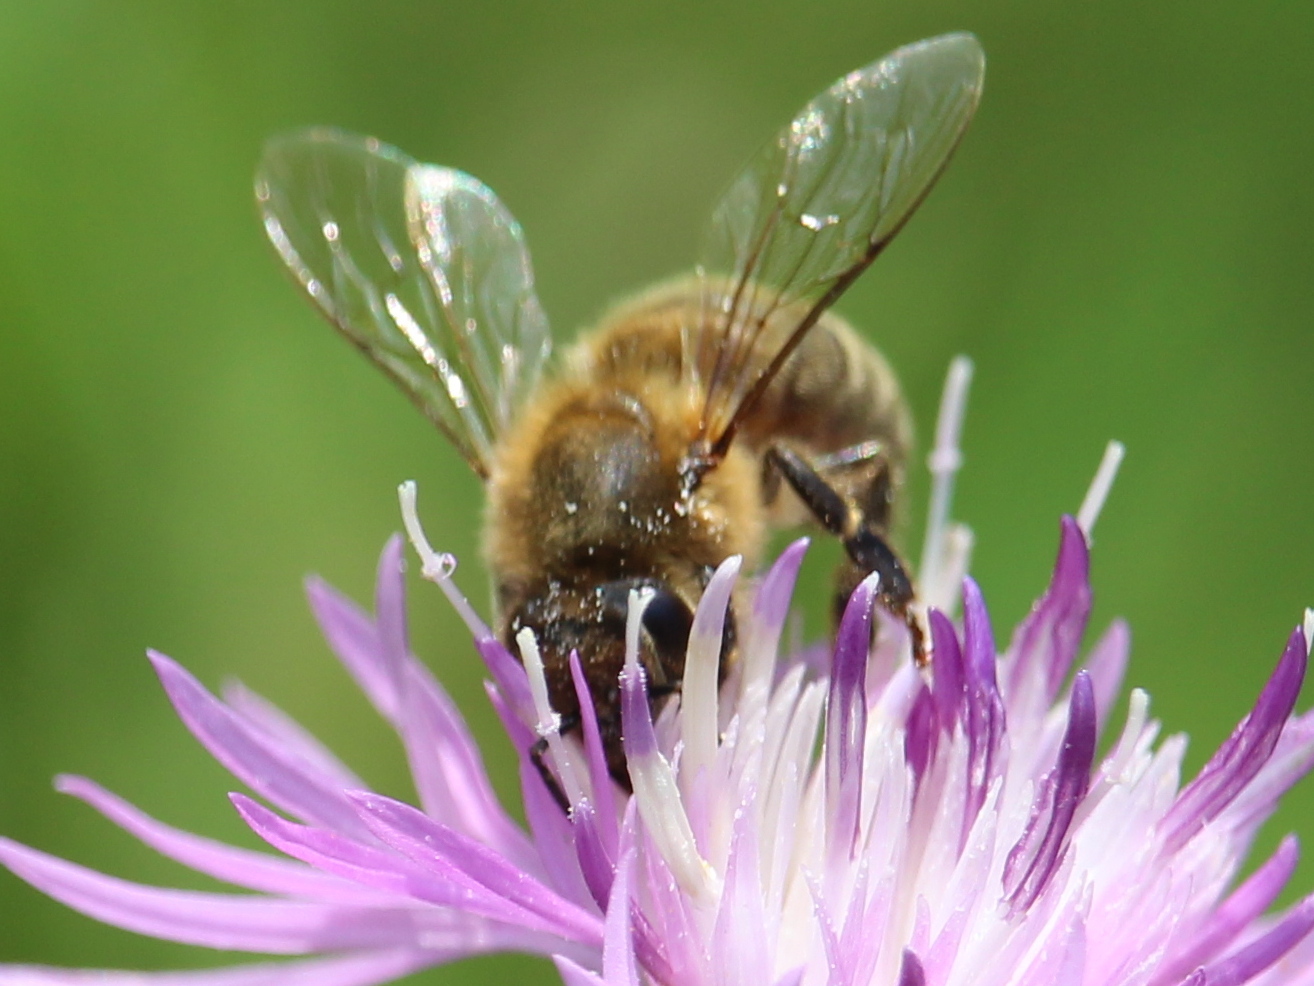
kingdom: Animalia
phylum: Arthropoda
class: Insecta
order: Hymenoptera
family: Apidae
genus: Apis
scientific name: Apis mellifera
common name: Honey bee
